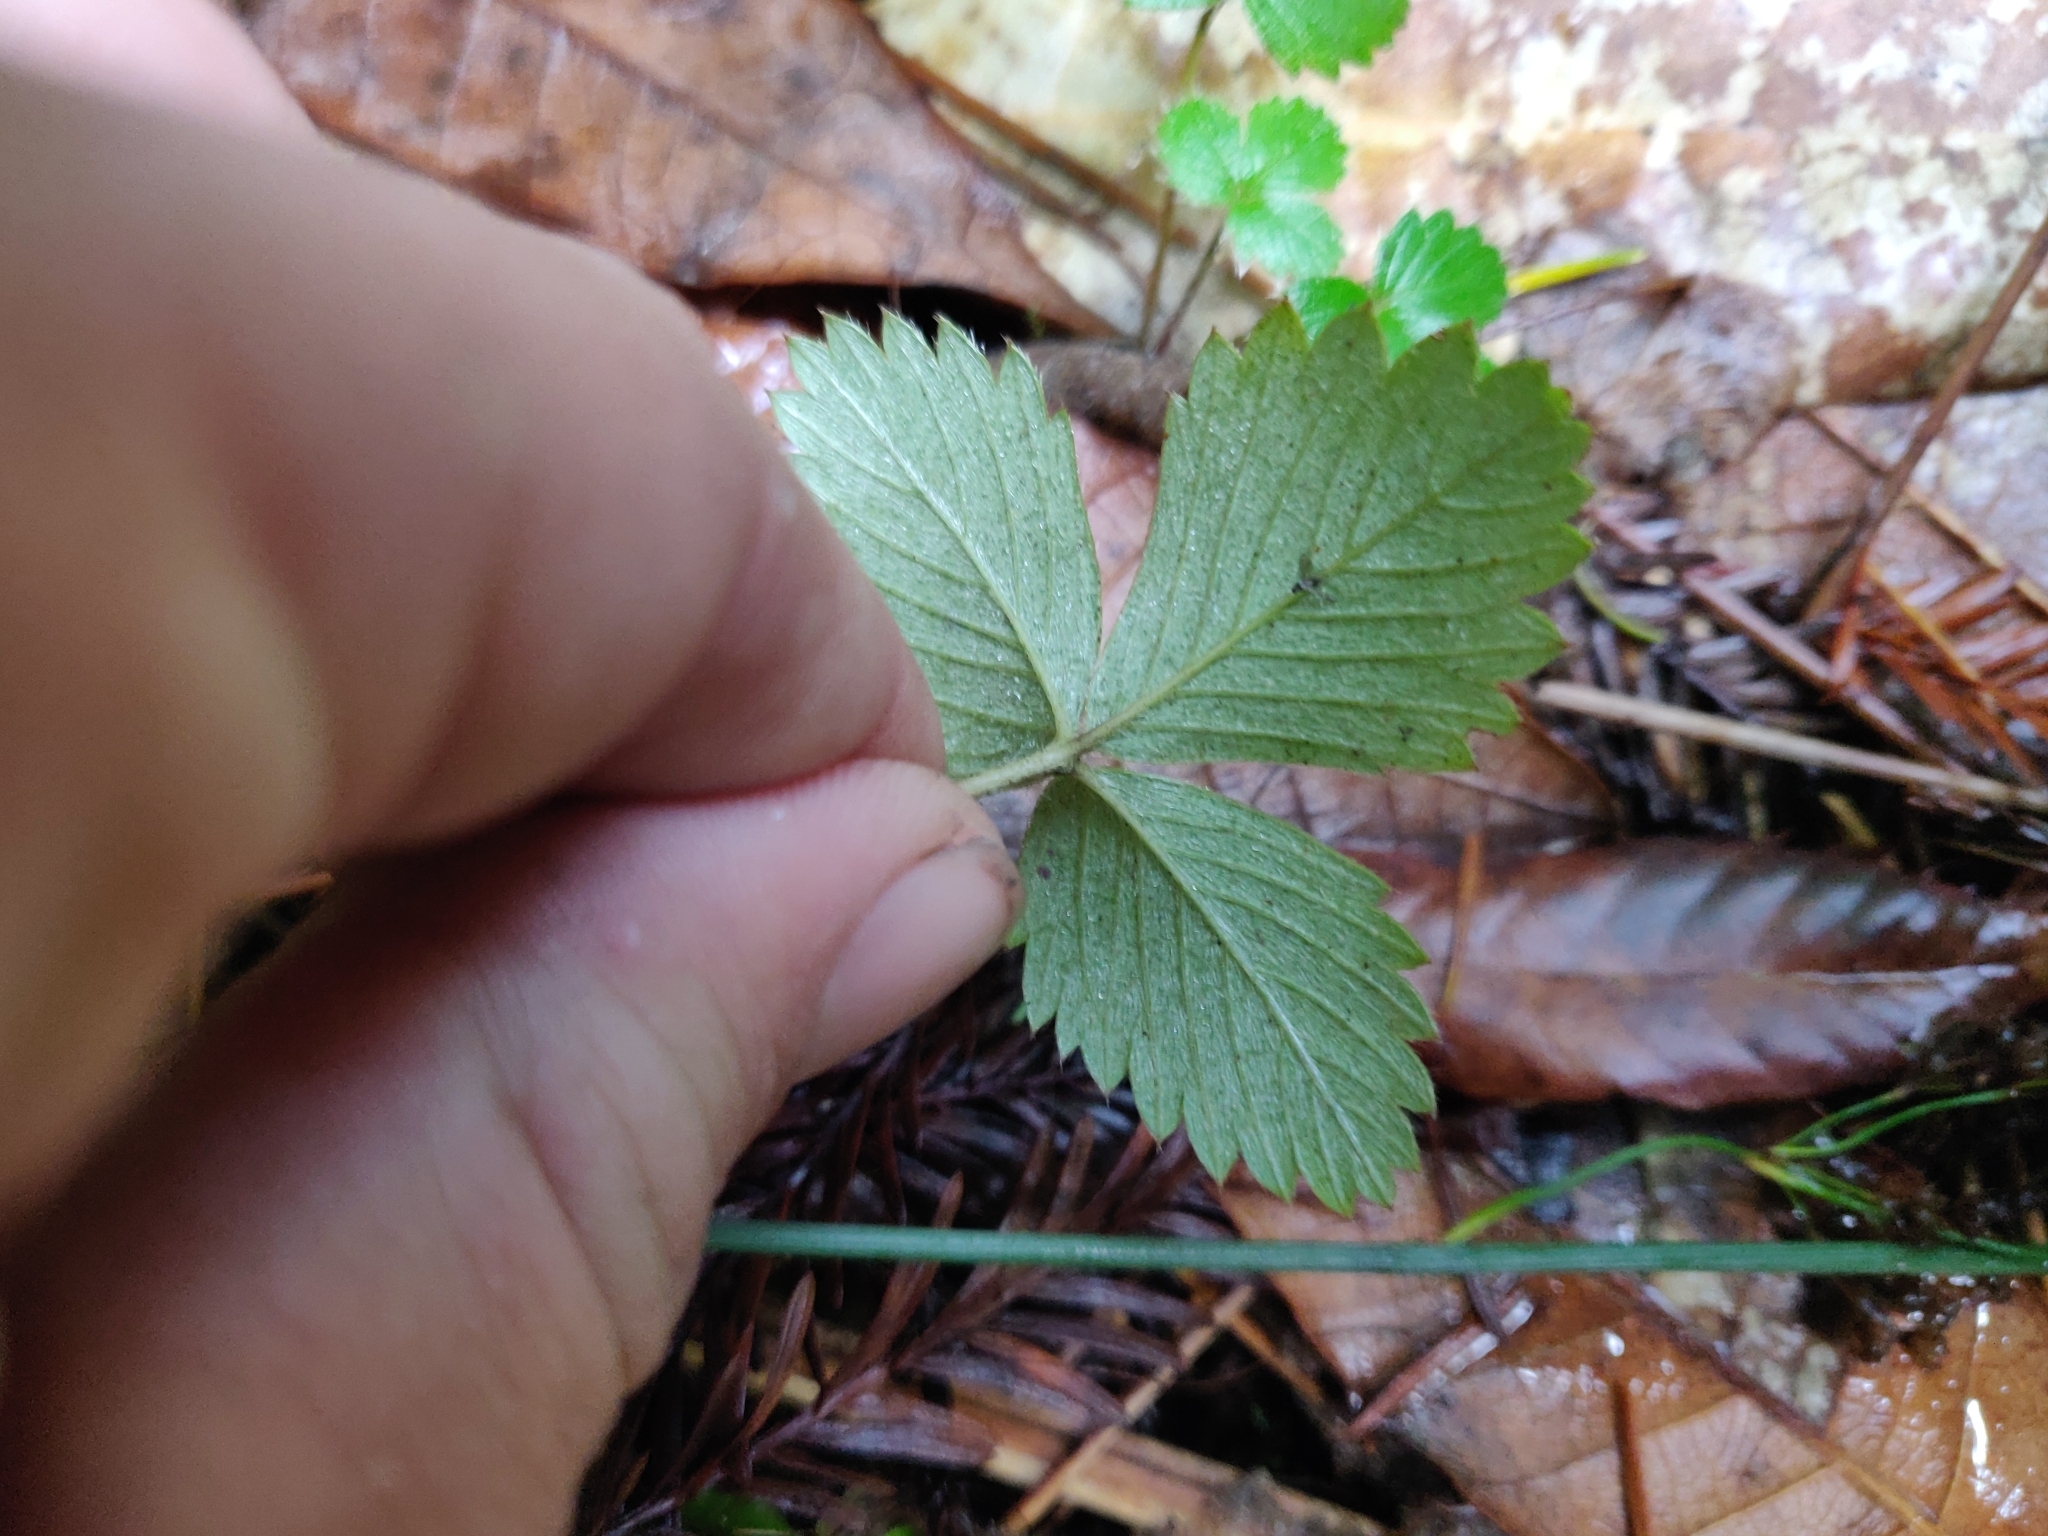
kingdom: Plantae
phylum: Tracheophyta
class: Magnoliopsida
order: Rosales
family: Rosaceae
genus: Fragaria
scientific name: Fragaria vesca
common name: Wild strawberry
